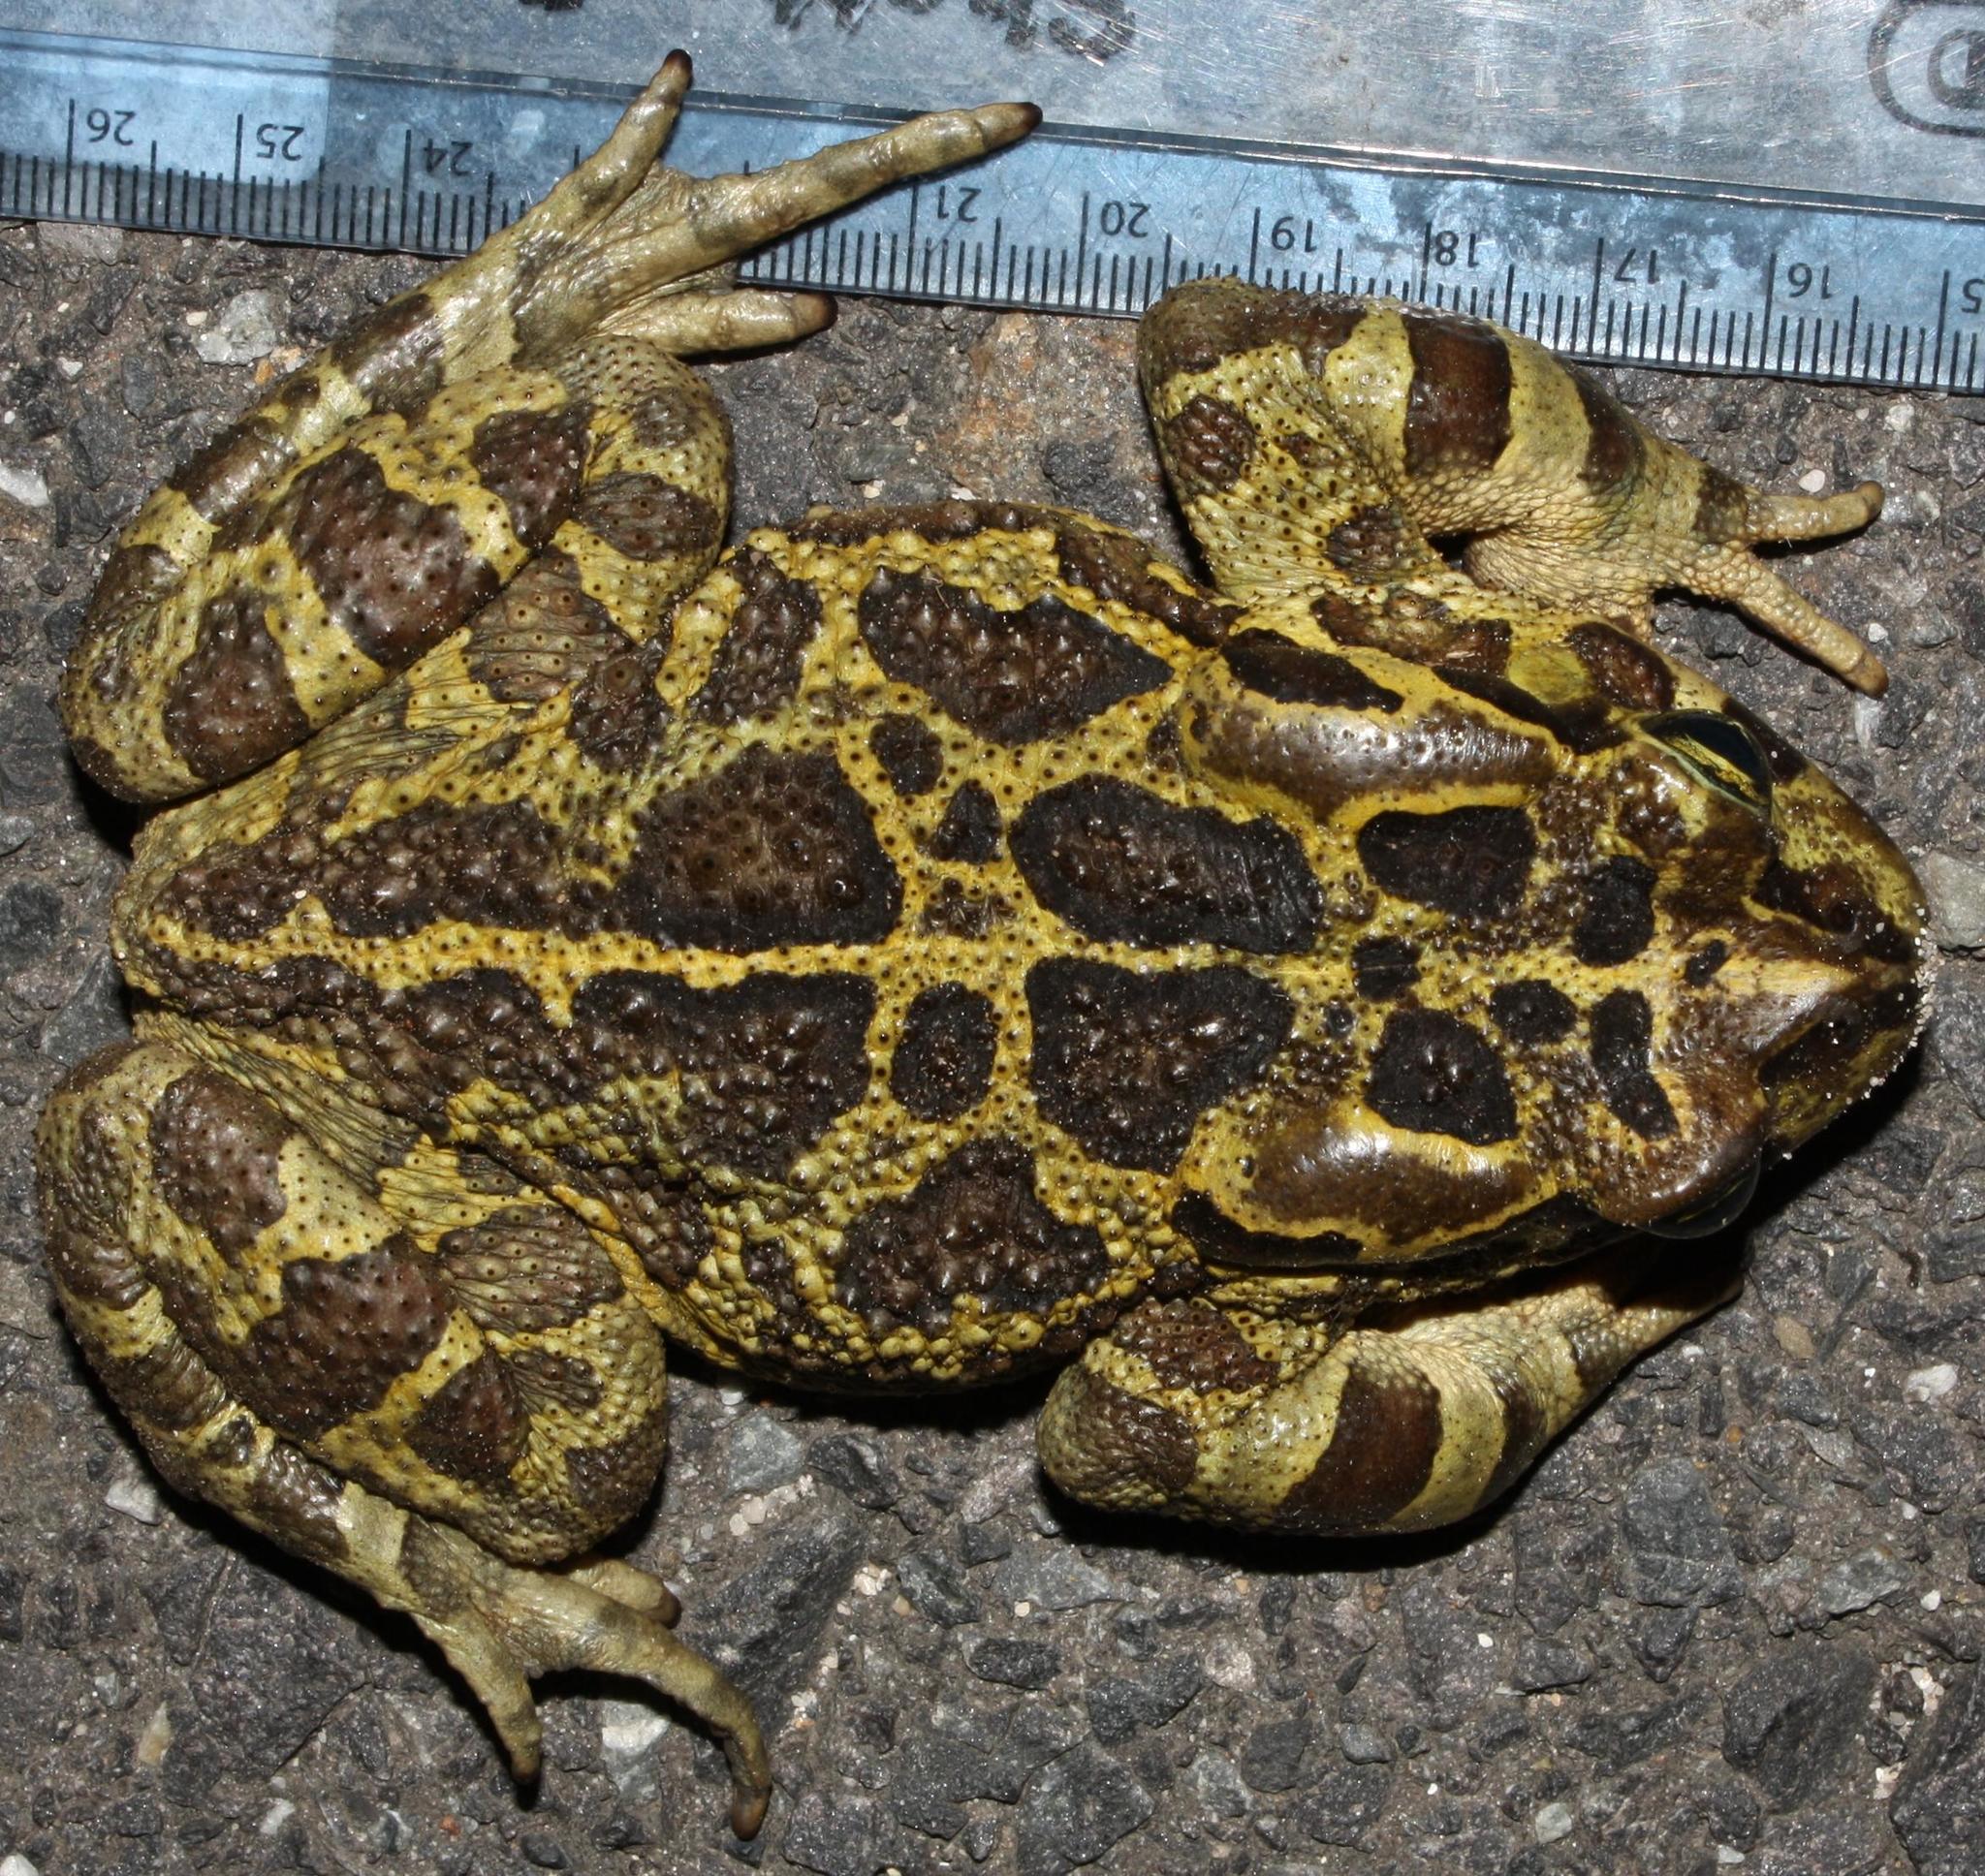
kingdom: Animalia
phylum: Chordata
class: Amphibia
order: Anura
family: Bufonidae
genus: Sclerophrys
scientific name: Sclerophrys pantherina
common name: Panther toad
